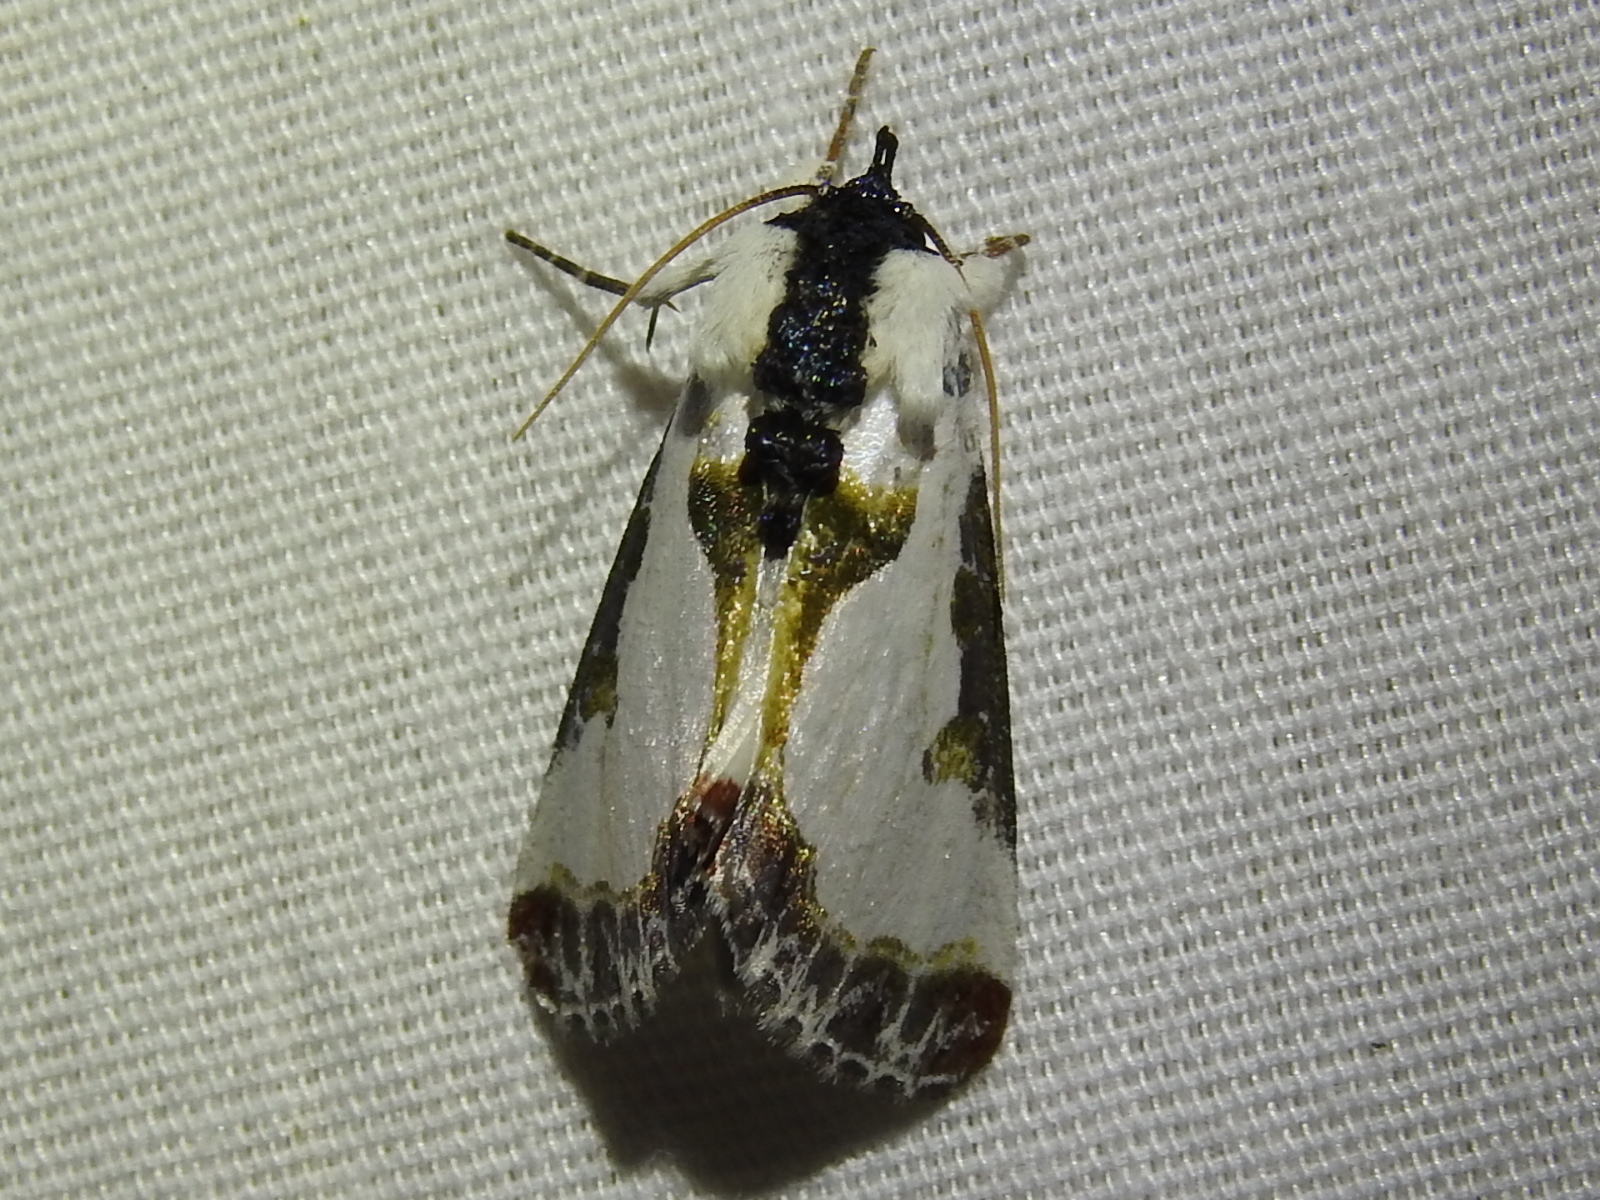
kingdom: Animalia
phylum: Arthropoda
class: Insecta
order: Lepidoptera
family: Noctuidae
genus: Xerociris
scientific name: Xerociris wilsonii
